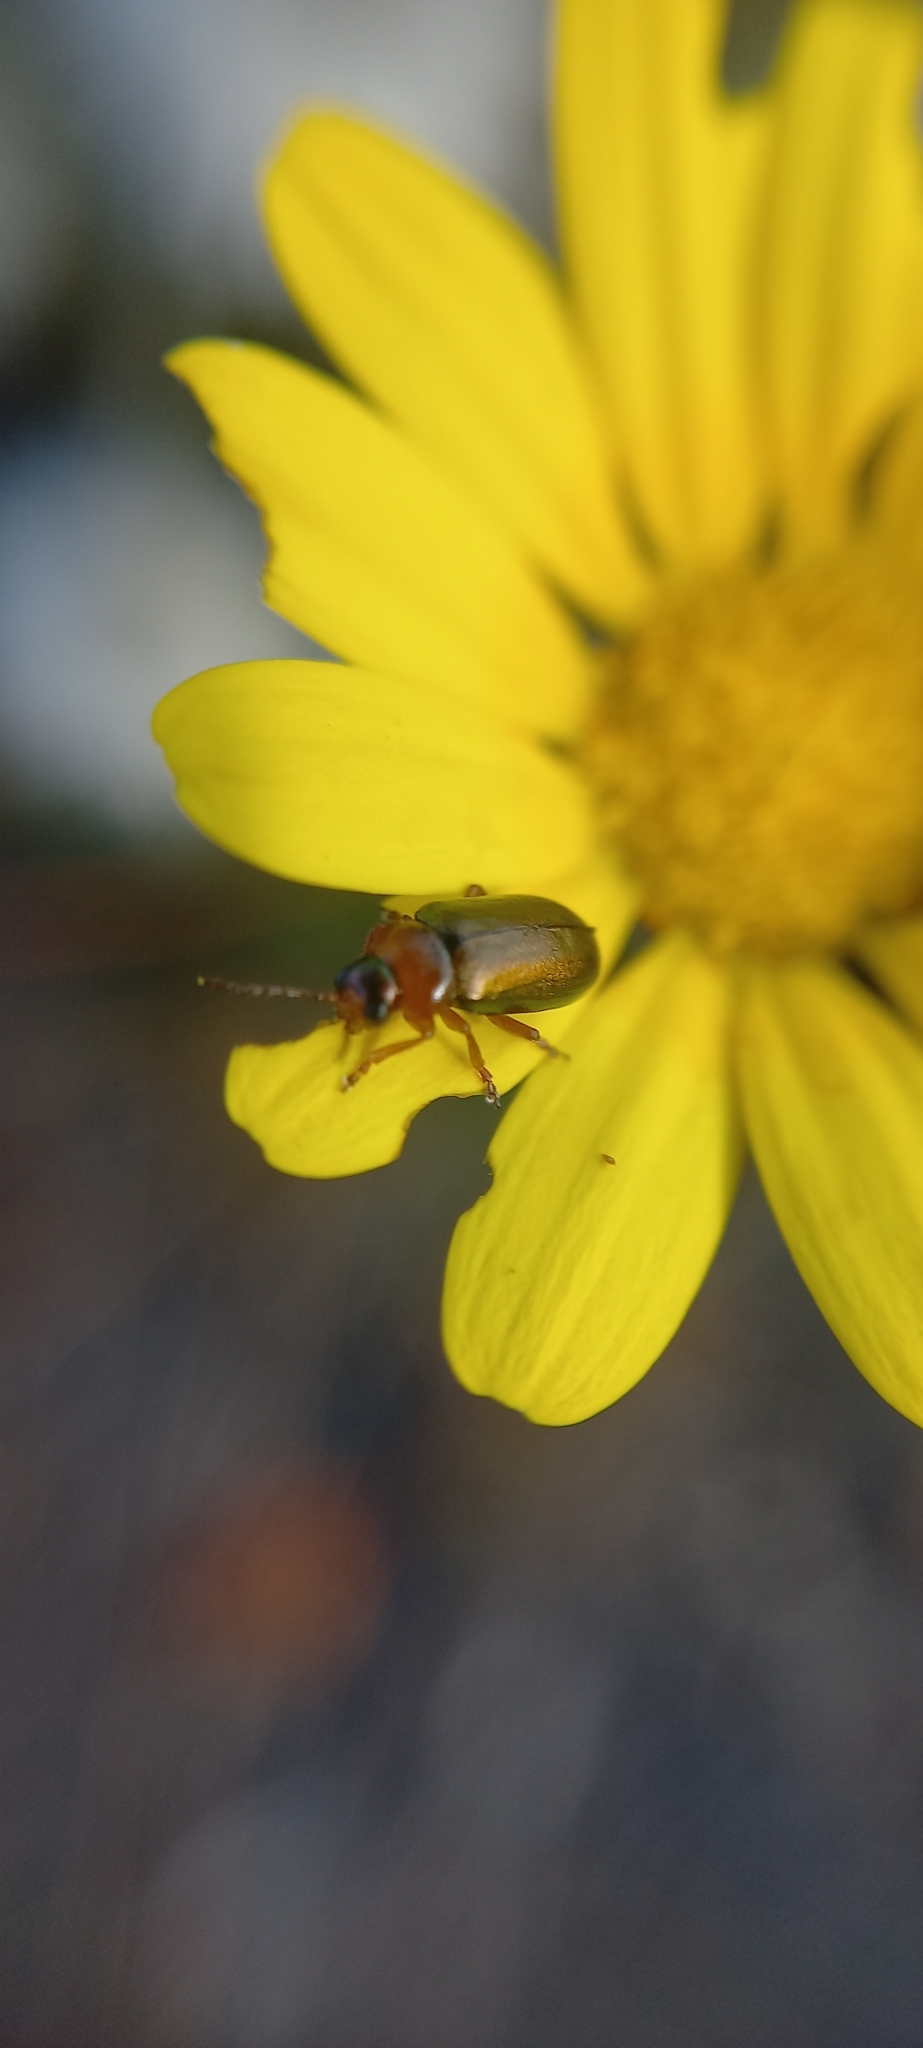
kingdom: Animalia
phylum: Arthropoda
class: Insecta
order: Coleoptera
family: Chrysomelidae
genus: Palaeophylia
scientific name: Palaeophylia
